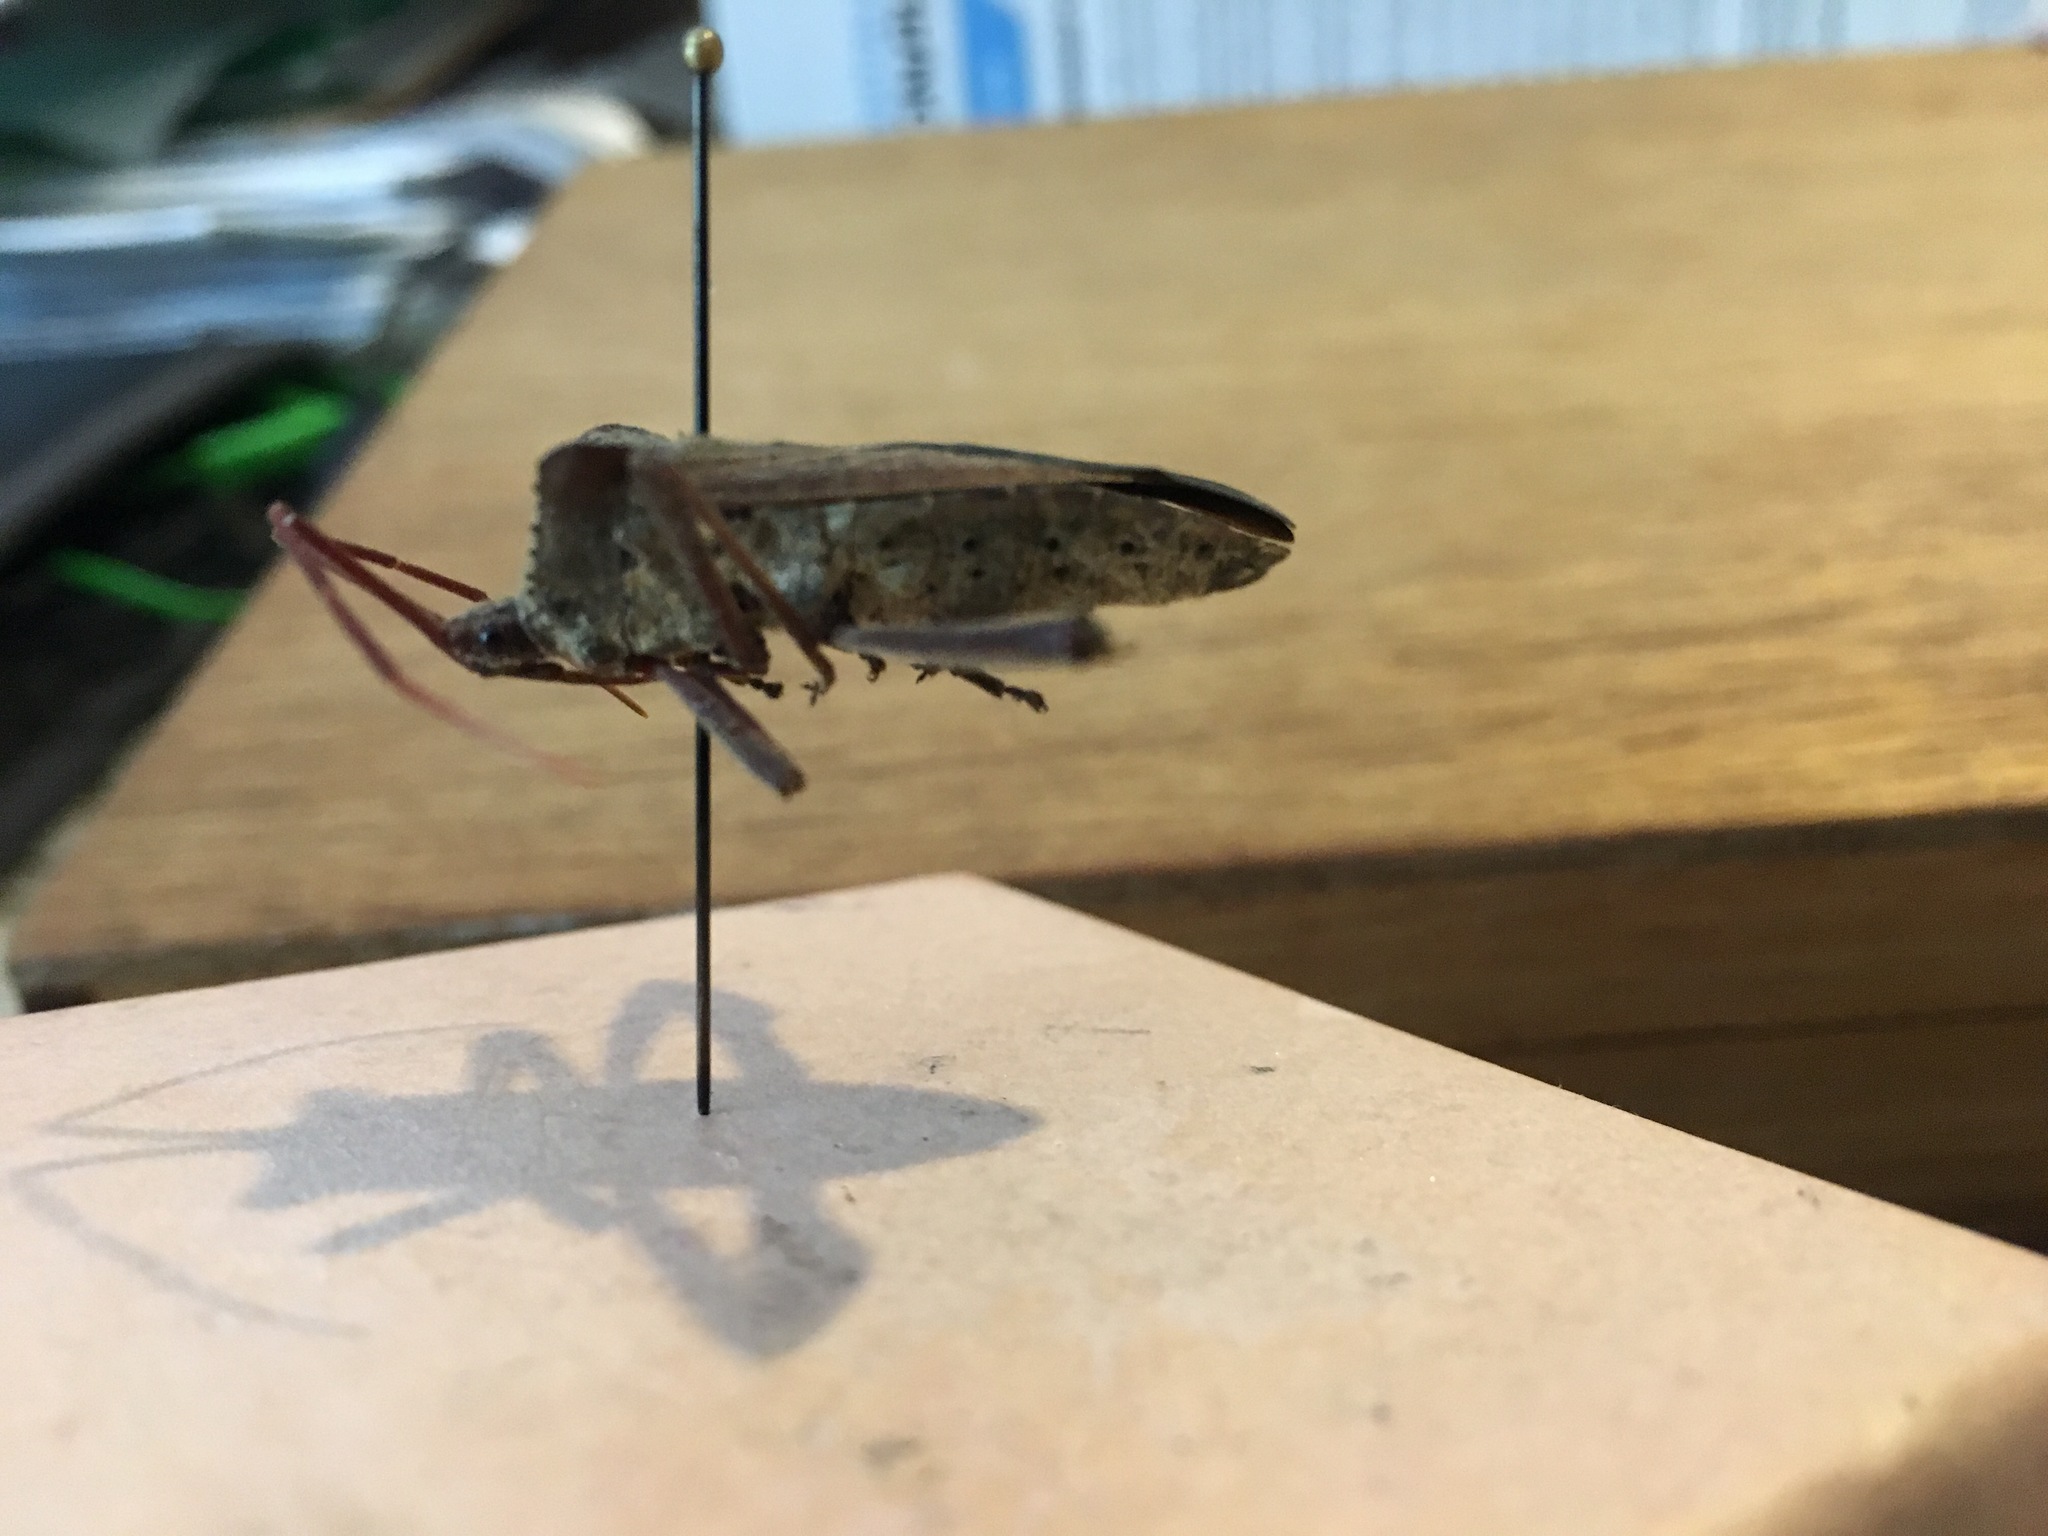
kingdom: Animalia
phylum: Arthropoda
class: Insecta
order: Hemiptera
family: Coreidae
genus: Acanthocephala
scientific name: Acanthocephala declivis
